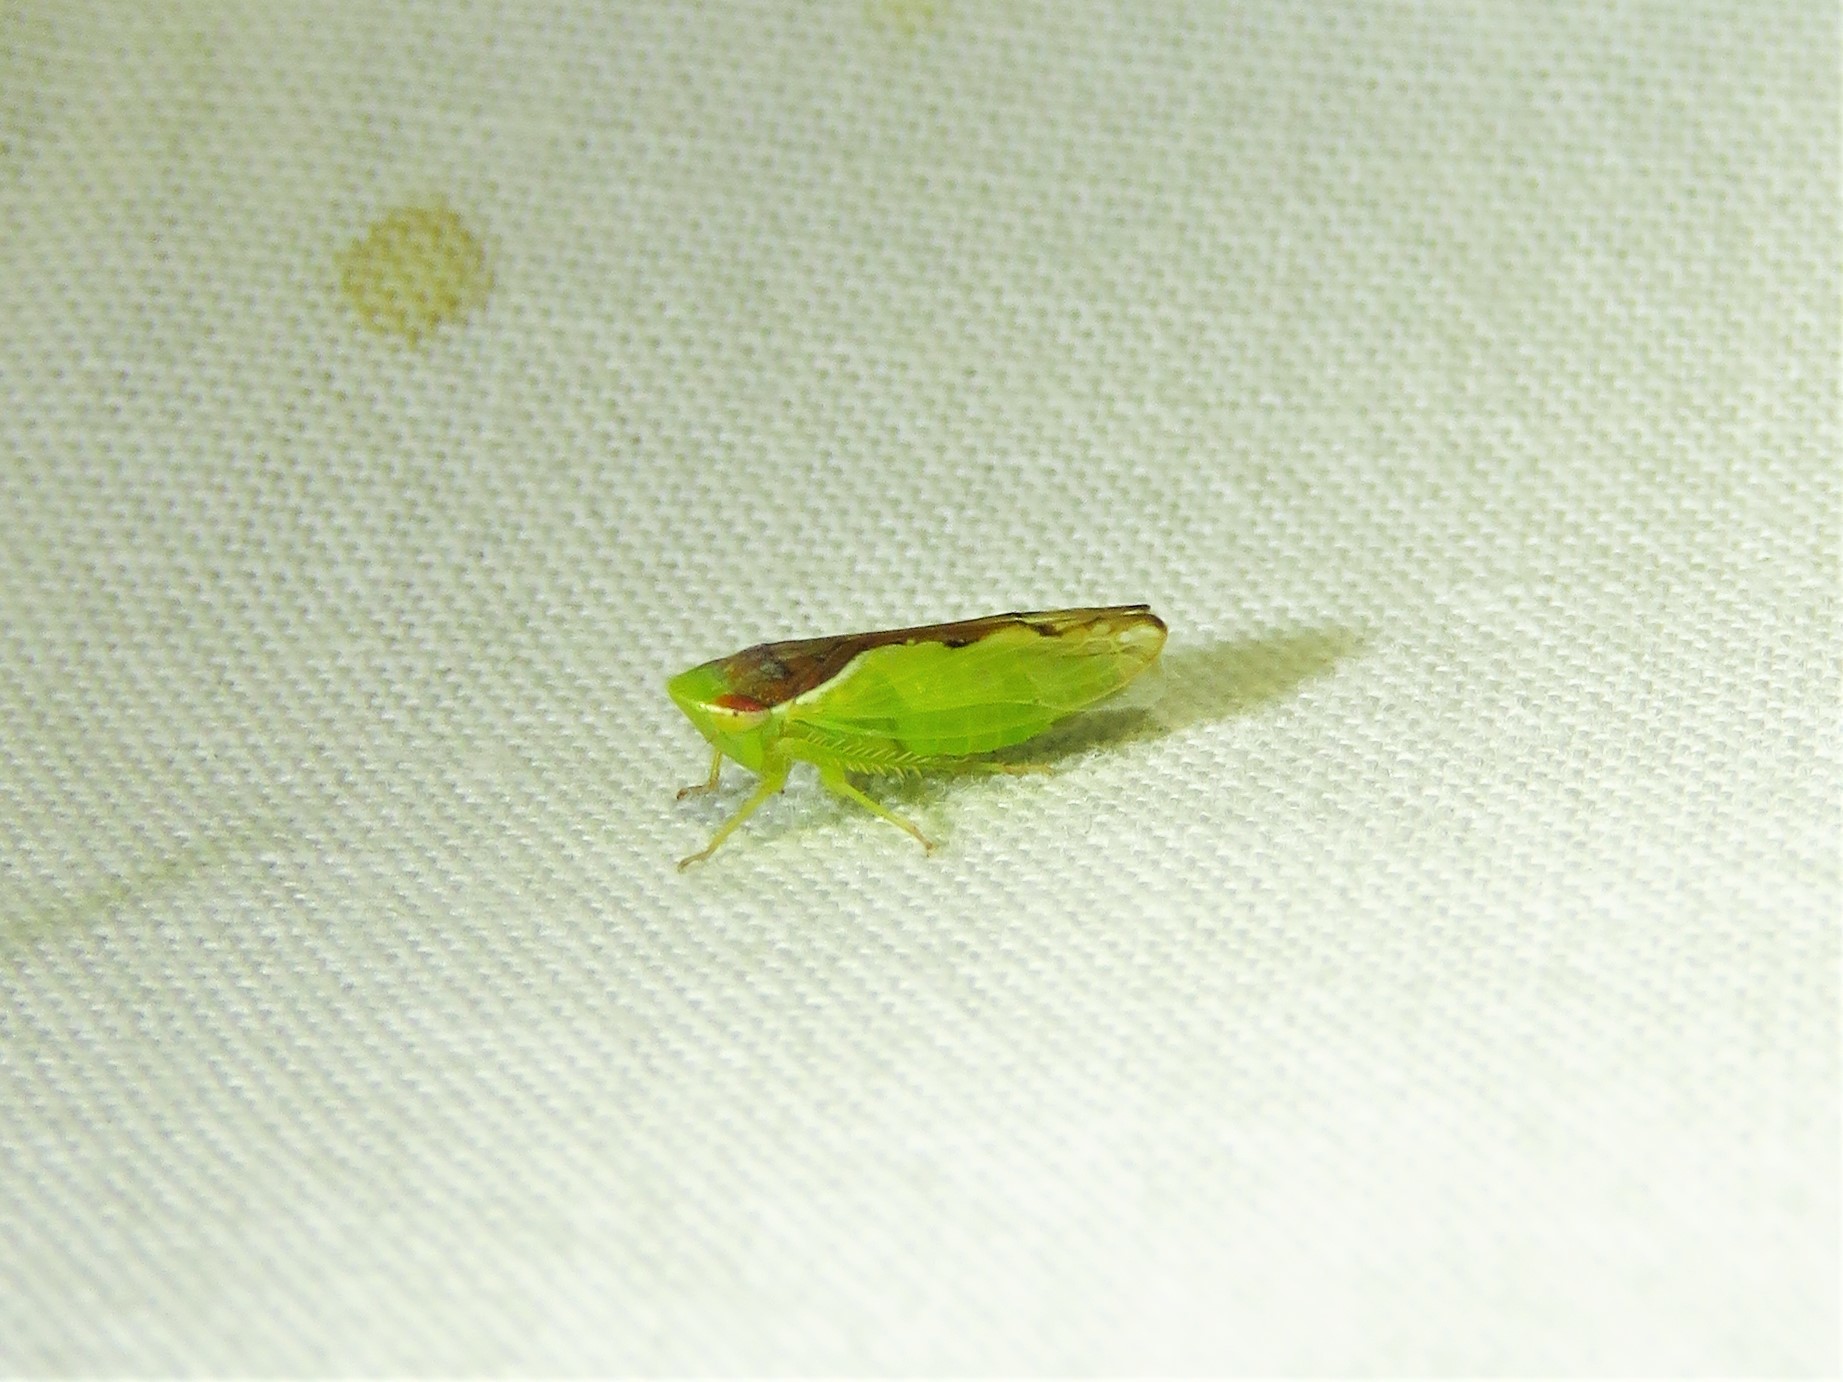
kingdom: Animalia
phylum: Arthropoda
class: Insecta
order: Hemiptera
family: Cicadellidae
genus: Omansobara ing
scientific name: Omansobara ing Omansobara palliolata
